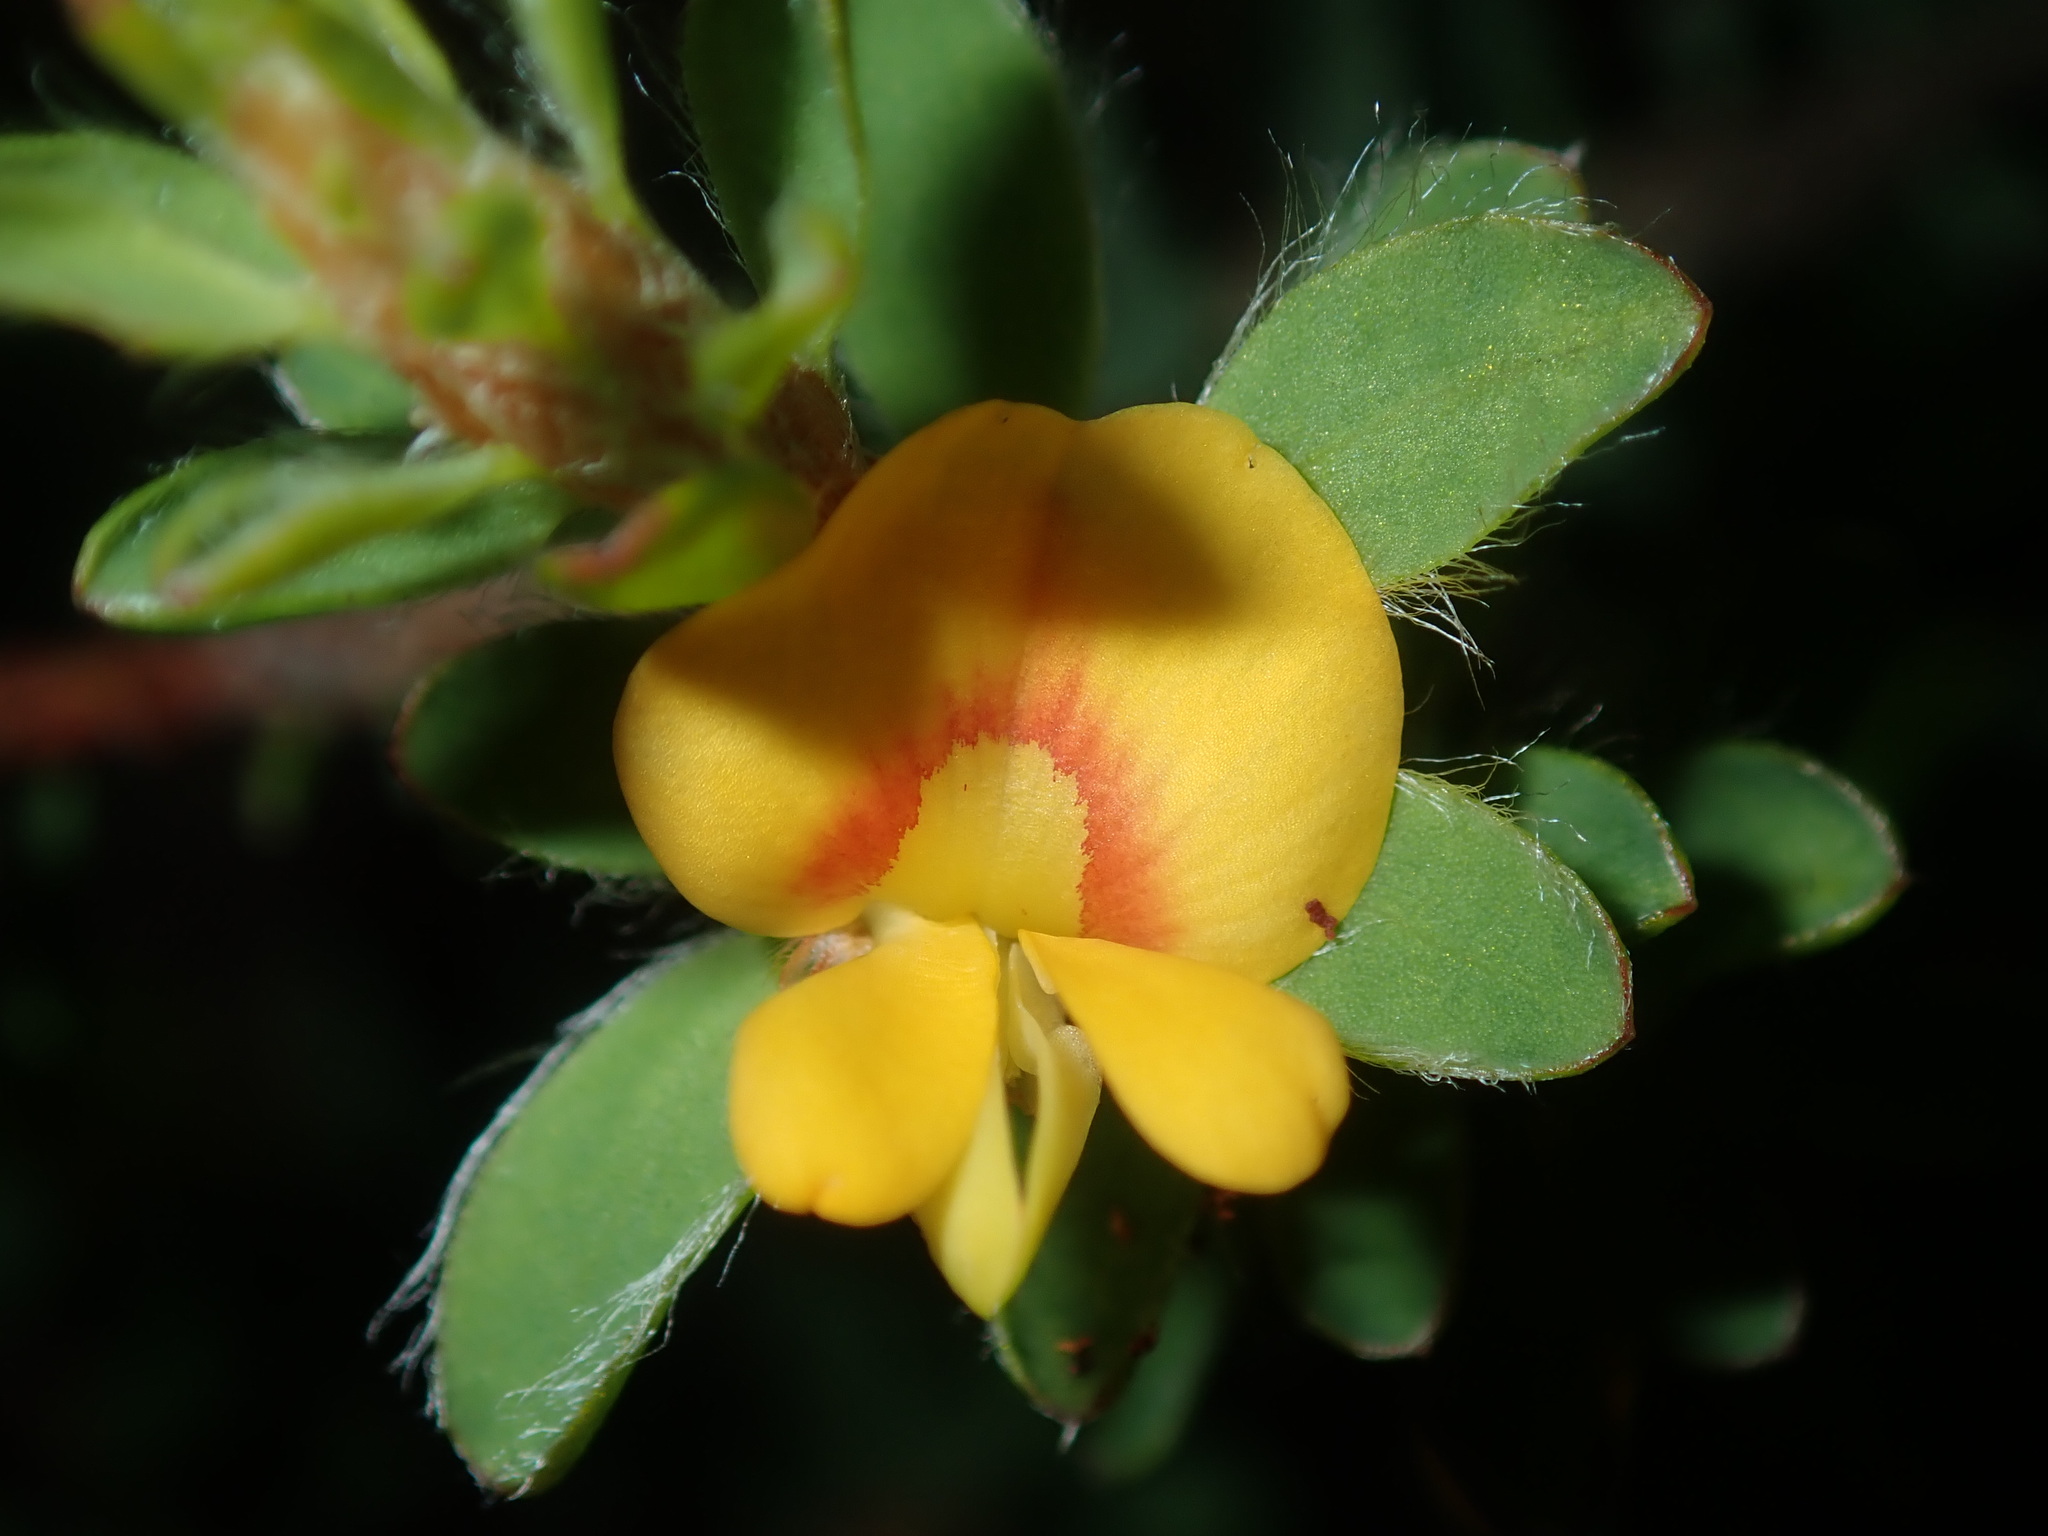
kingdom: Plantae
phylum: Tracheophyta
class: Magnoliopsida
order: Fabales
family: Fabaceae
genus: Pultenaea
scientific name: Pultenaea tuberculata
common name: Wreath bush-pea
